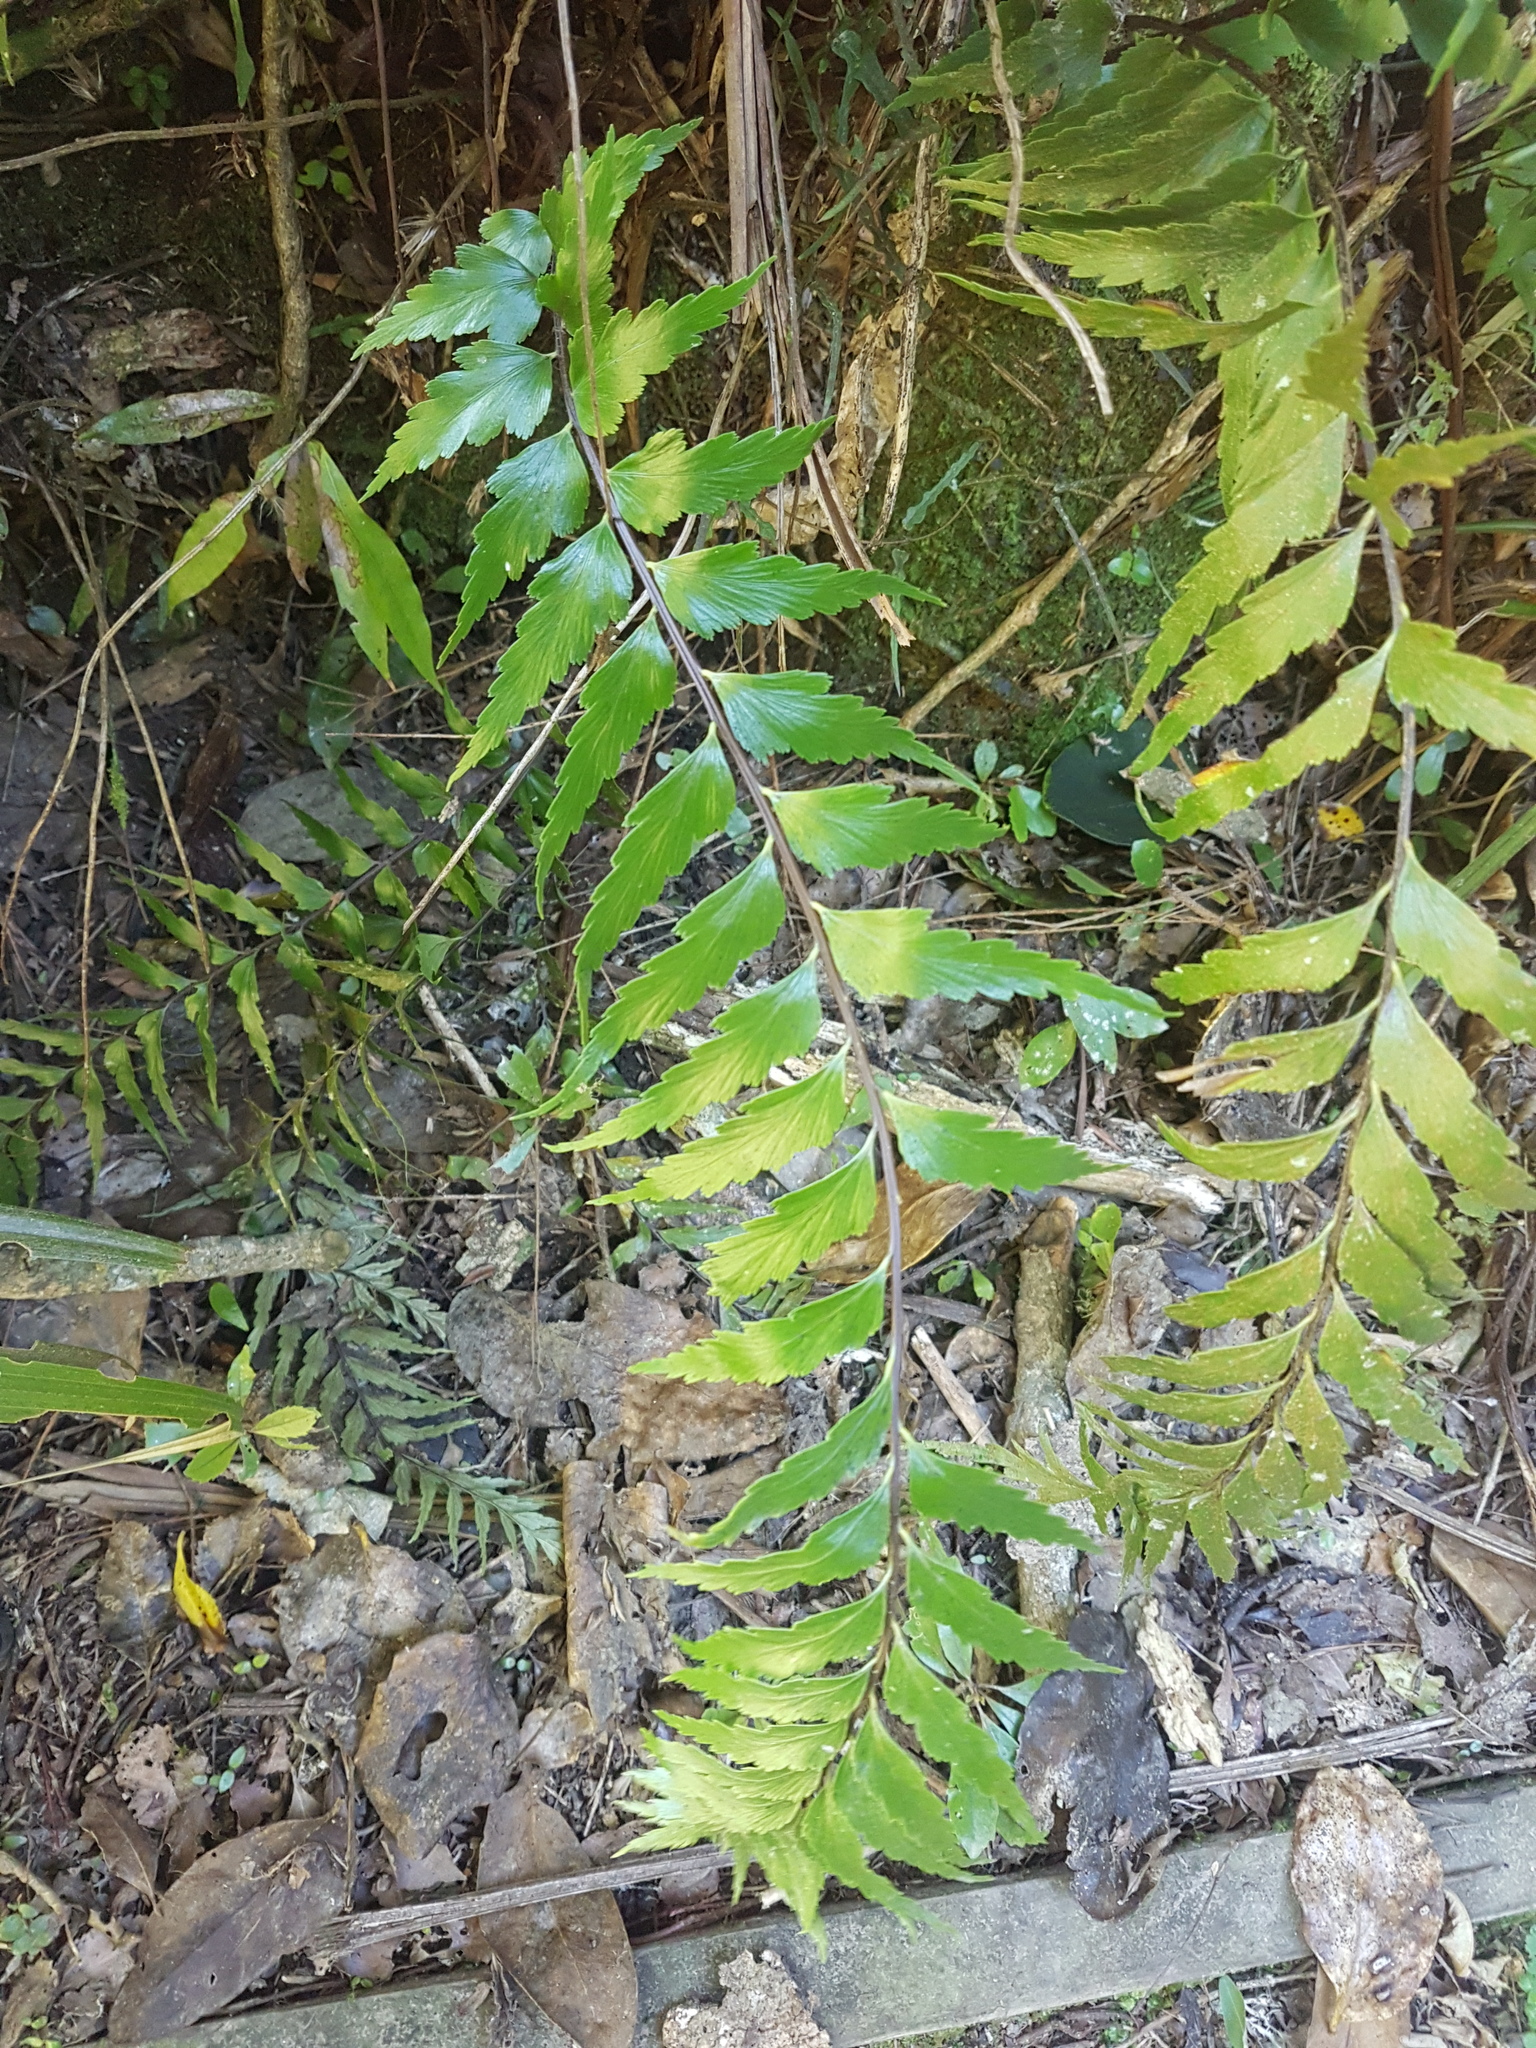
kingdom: Plantae
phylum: Tracheophyta
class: Polypodiopsida
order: Polypodiales
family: Aspleniaceae
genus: Asplenium
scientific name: Asplenium polyodon
